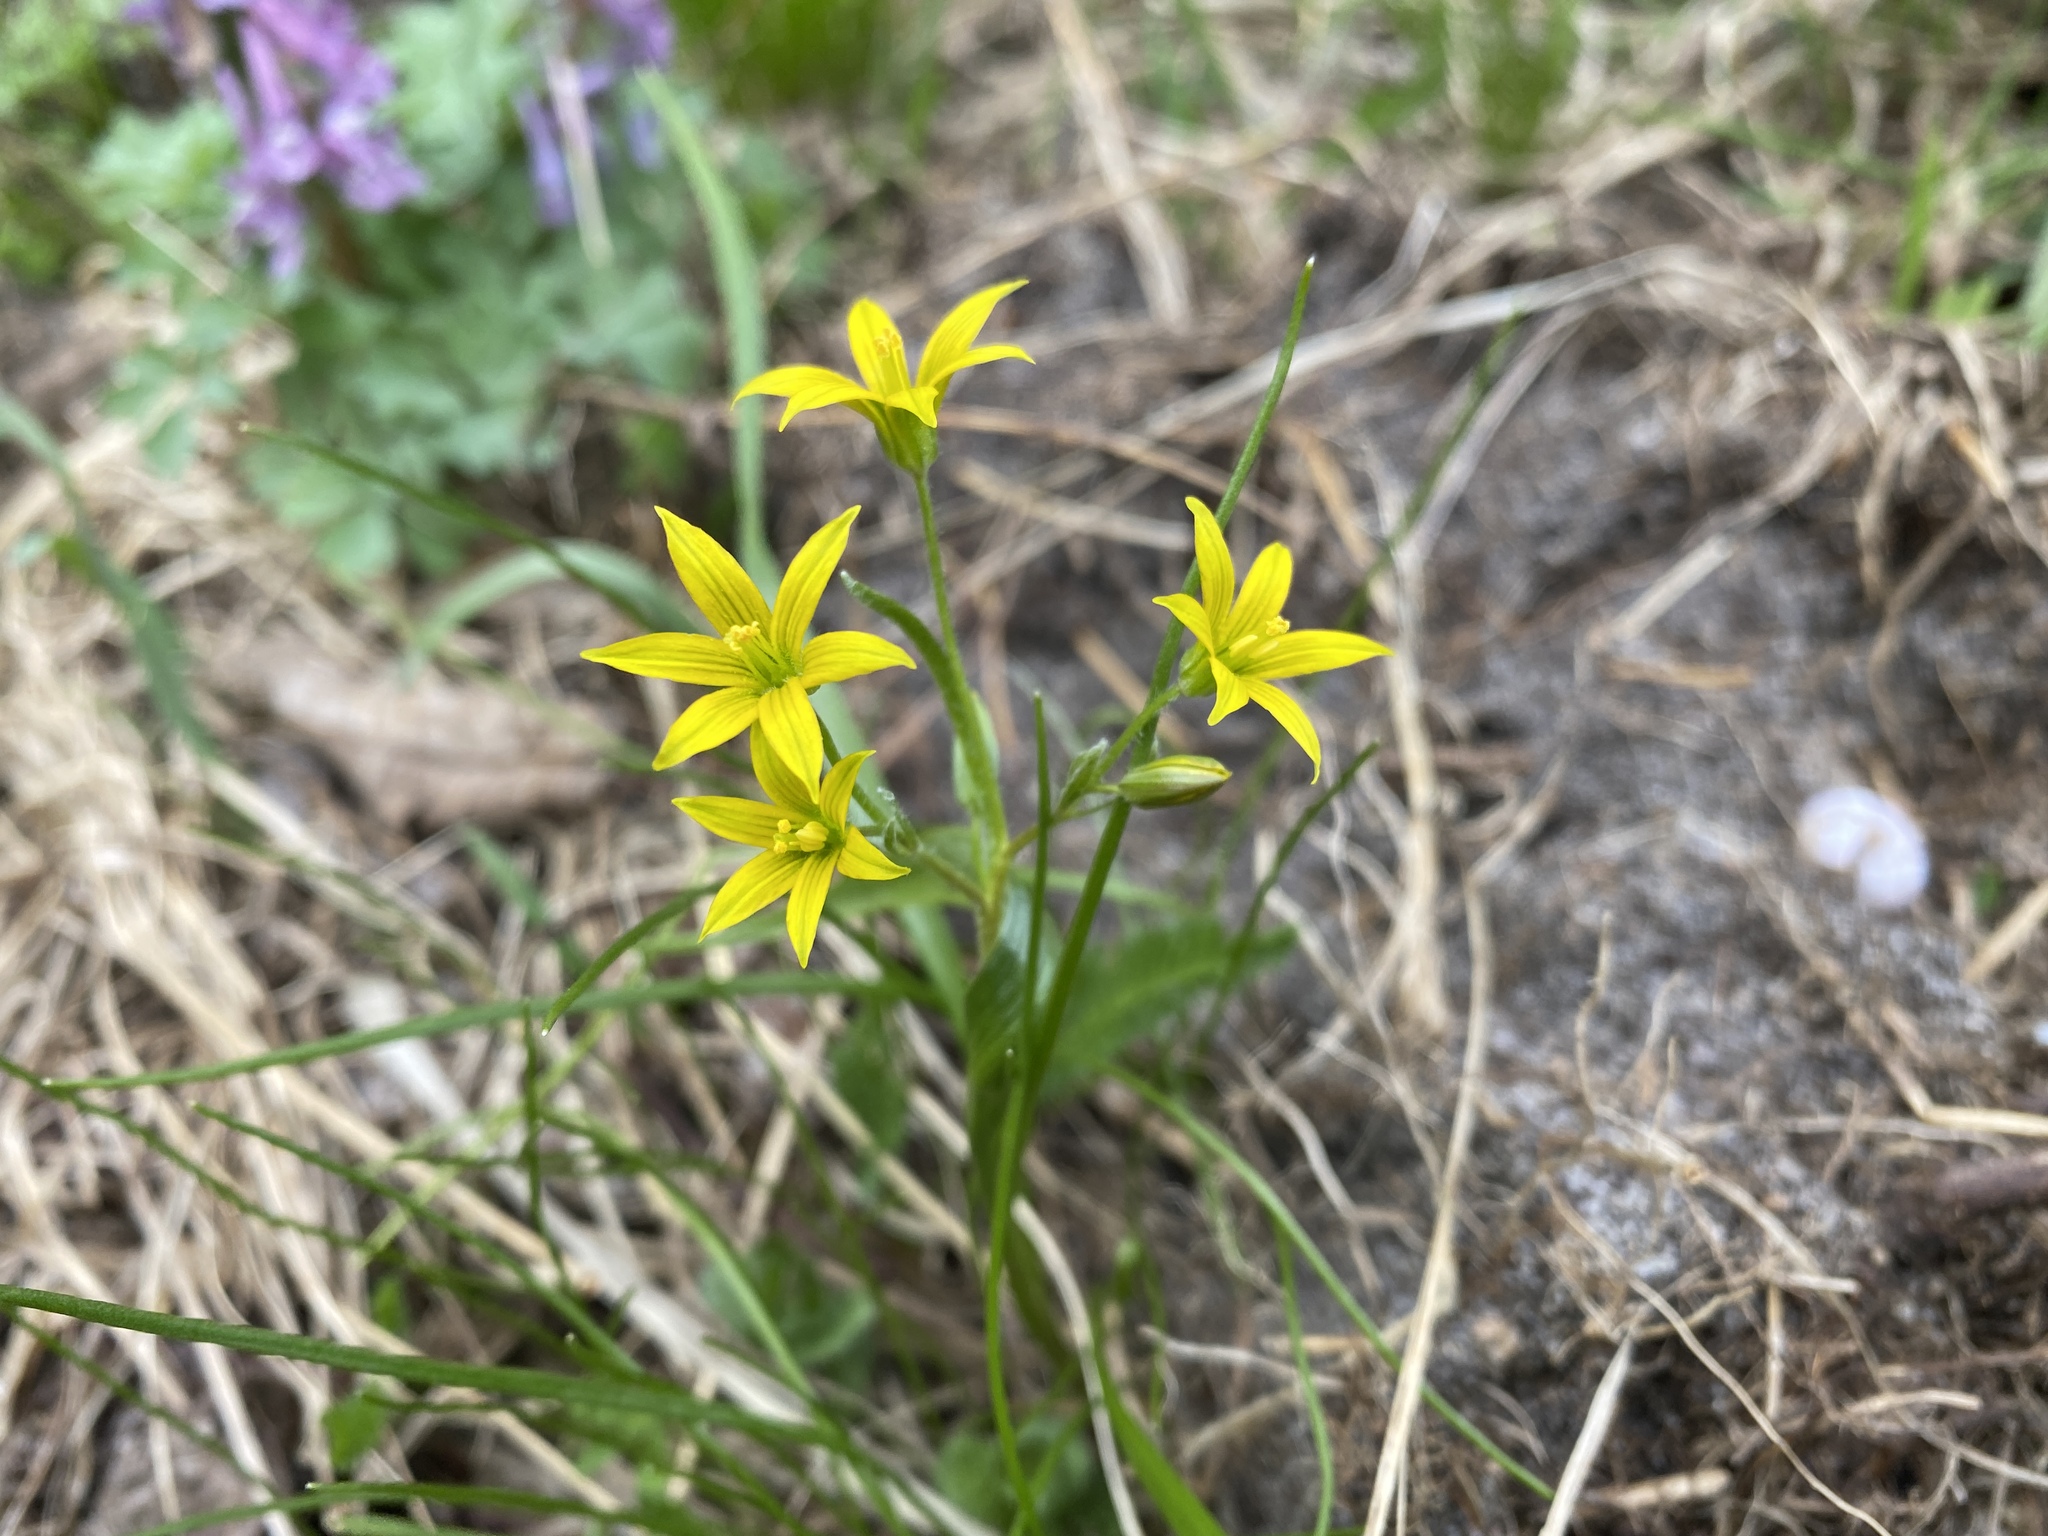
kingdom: Plantae
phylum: Tracheophyta
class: Liliopsida
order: Liliales
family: Liliaceae
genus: Gagea
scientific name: Gagea minima
